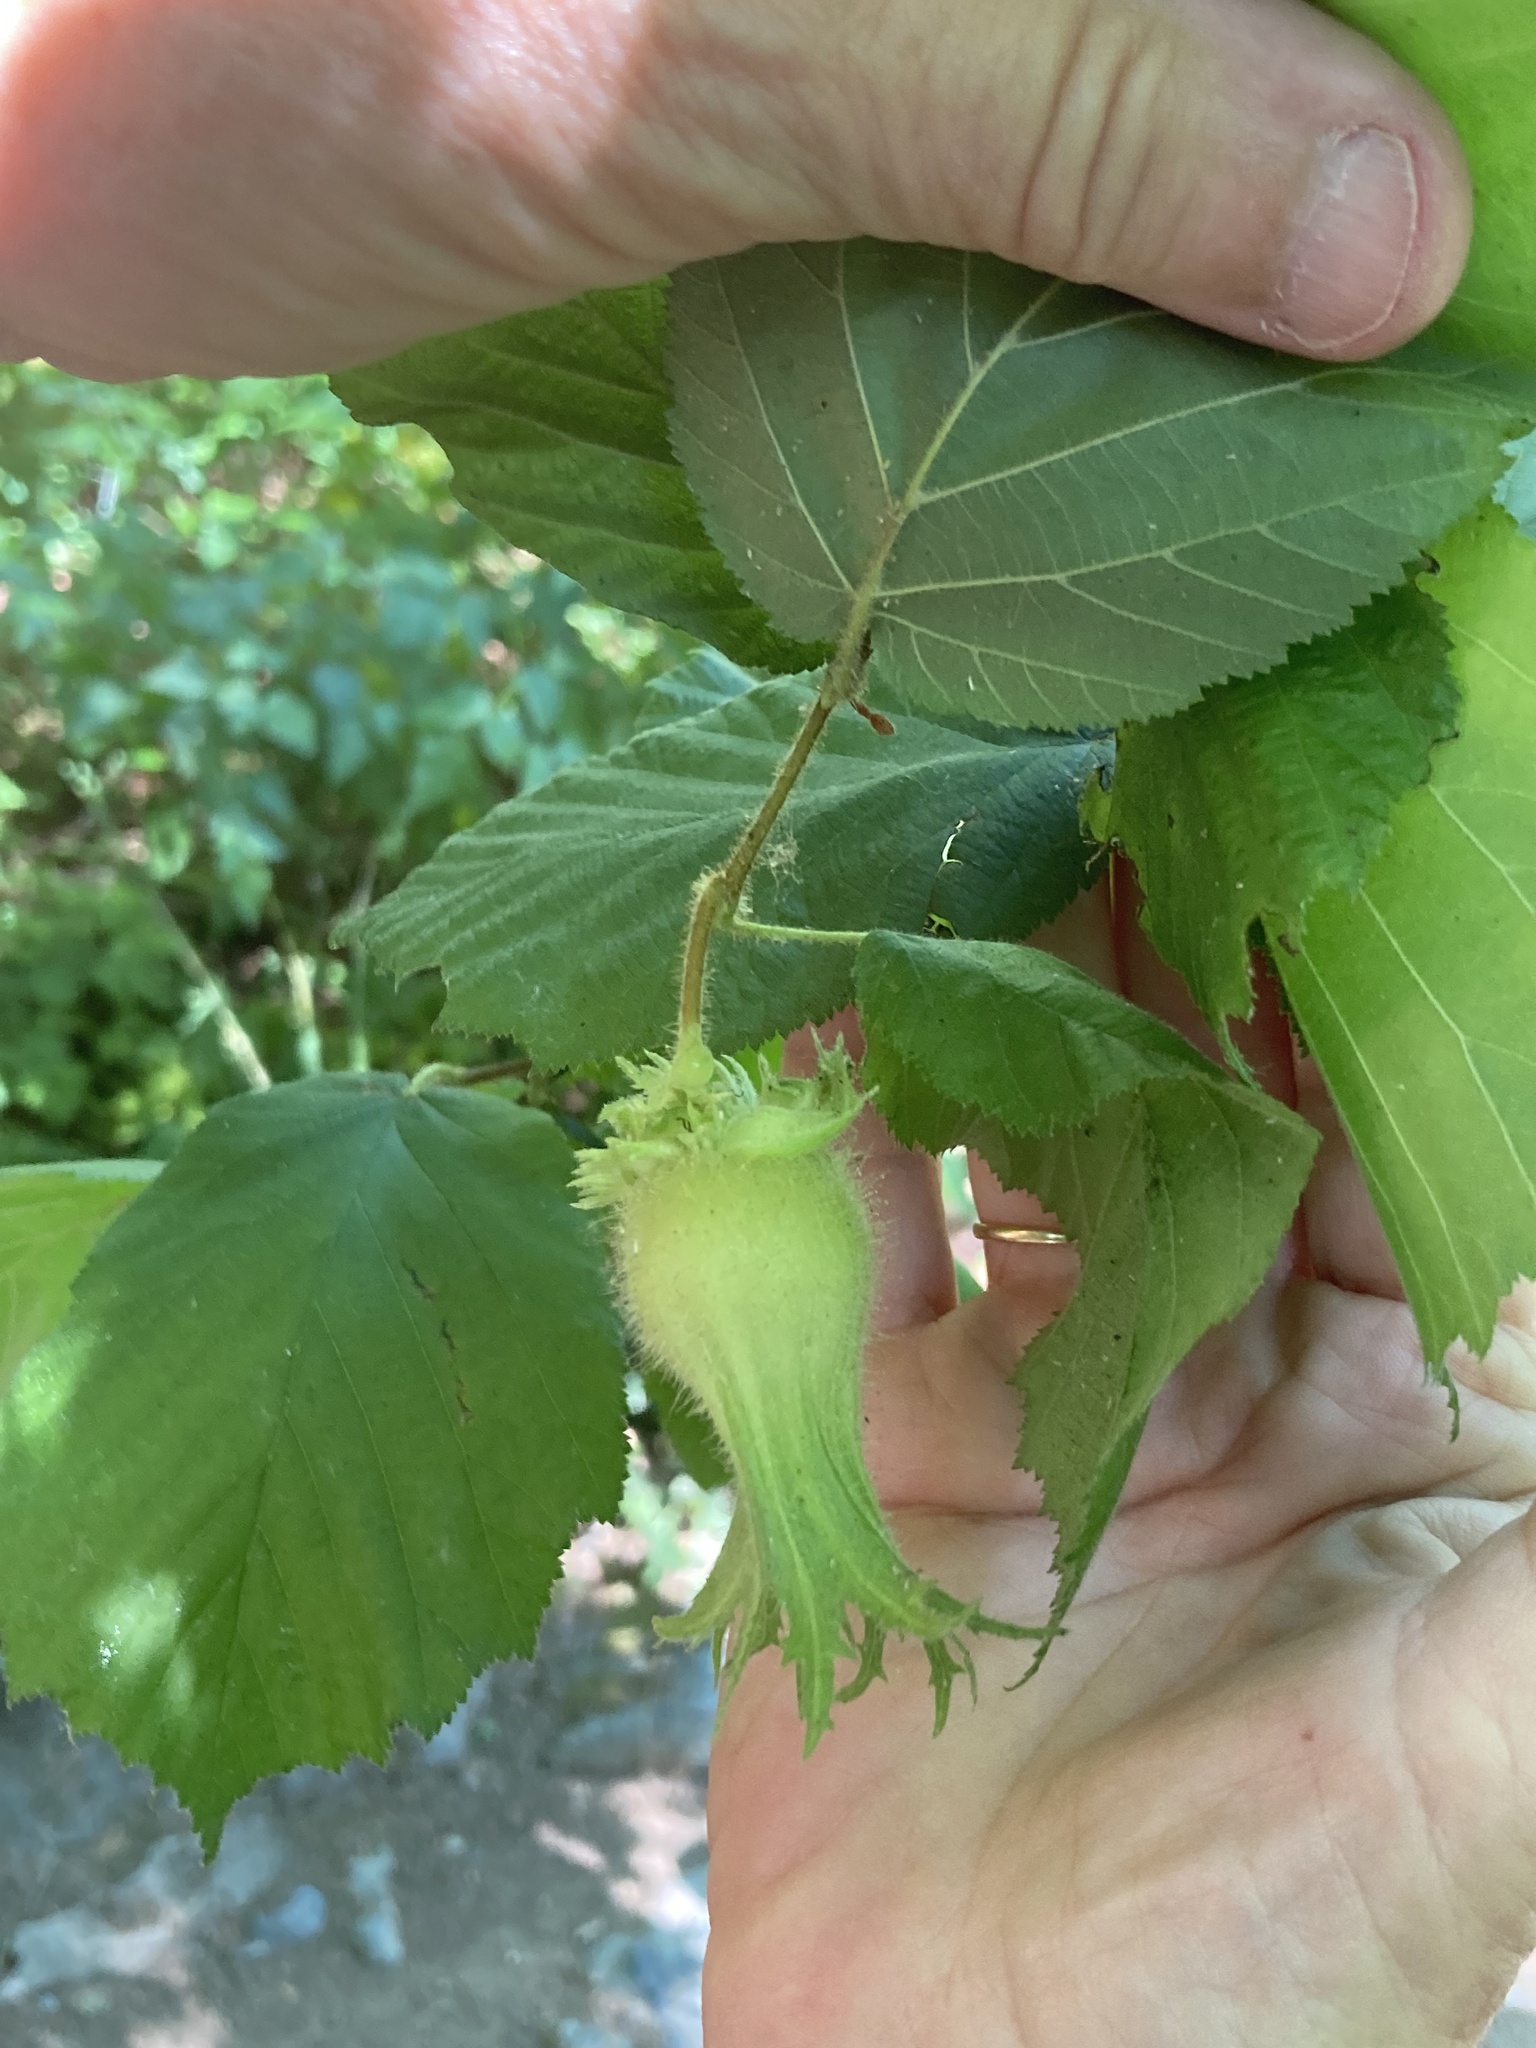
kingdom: Plantae
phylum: Tracheophyta
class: Magnoliopsida
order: Fagales
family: Betulaceae
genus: Corylus
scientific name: Corylus cornuta
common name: Beaked hazel
